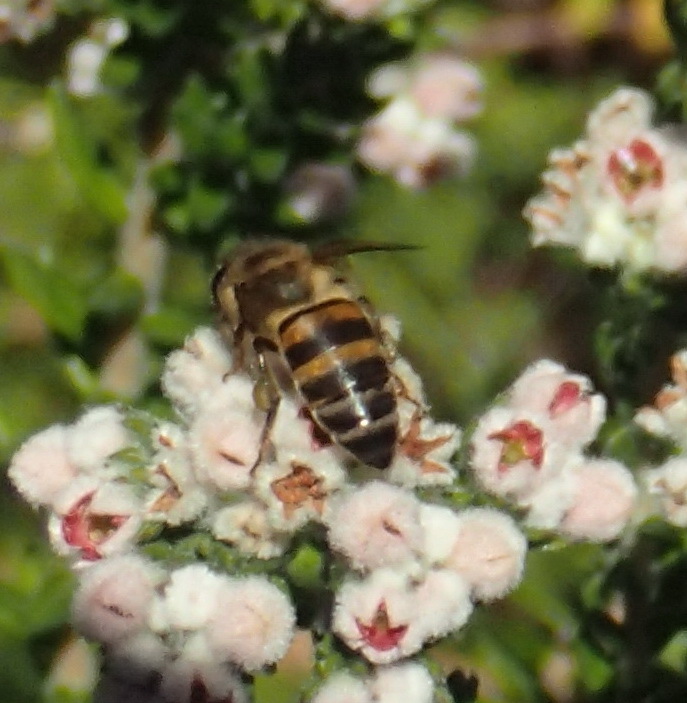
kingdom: Animalia
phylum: Arthropoda
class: Insecta
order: Hymenoptera
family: Apidae
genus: Apis
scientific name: Apis mellifera
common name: Honey bee
